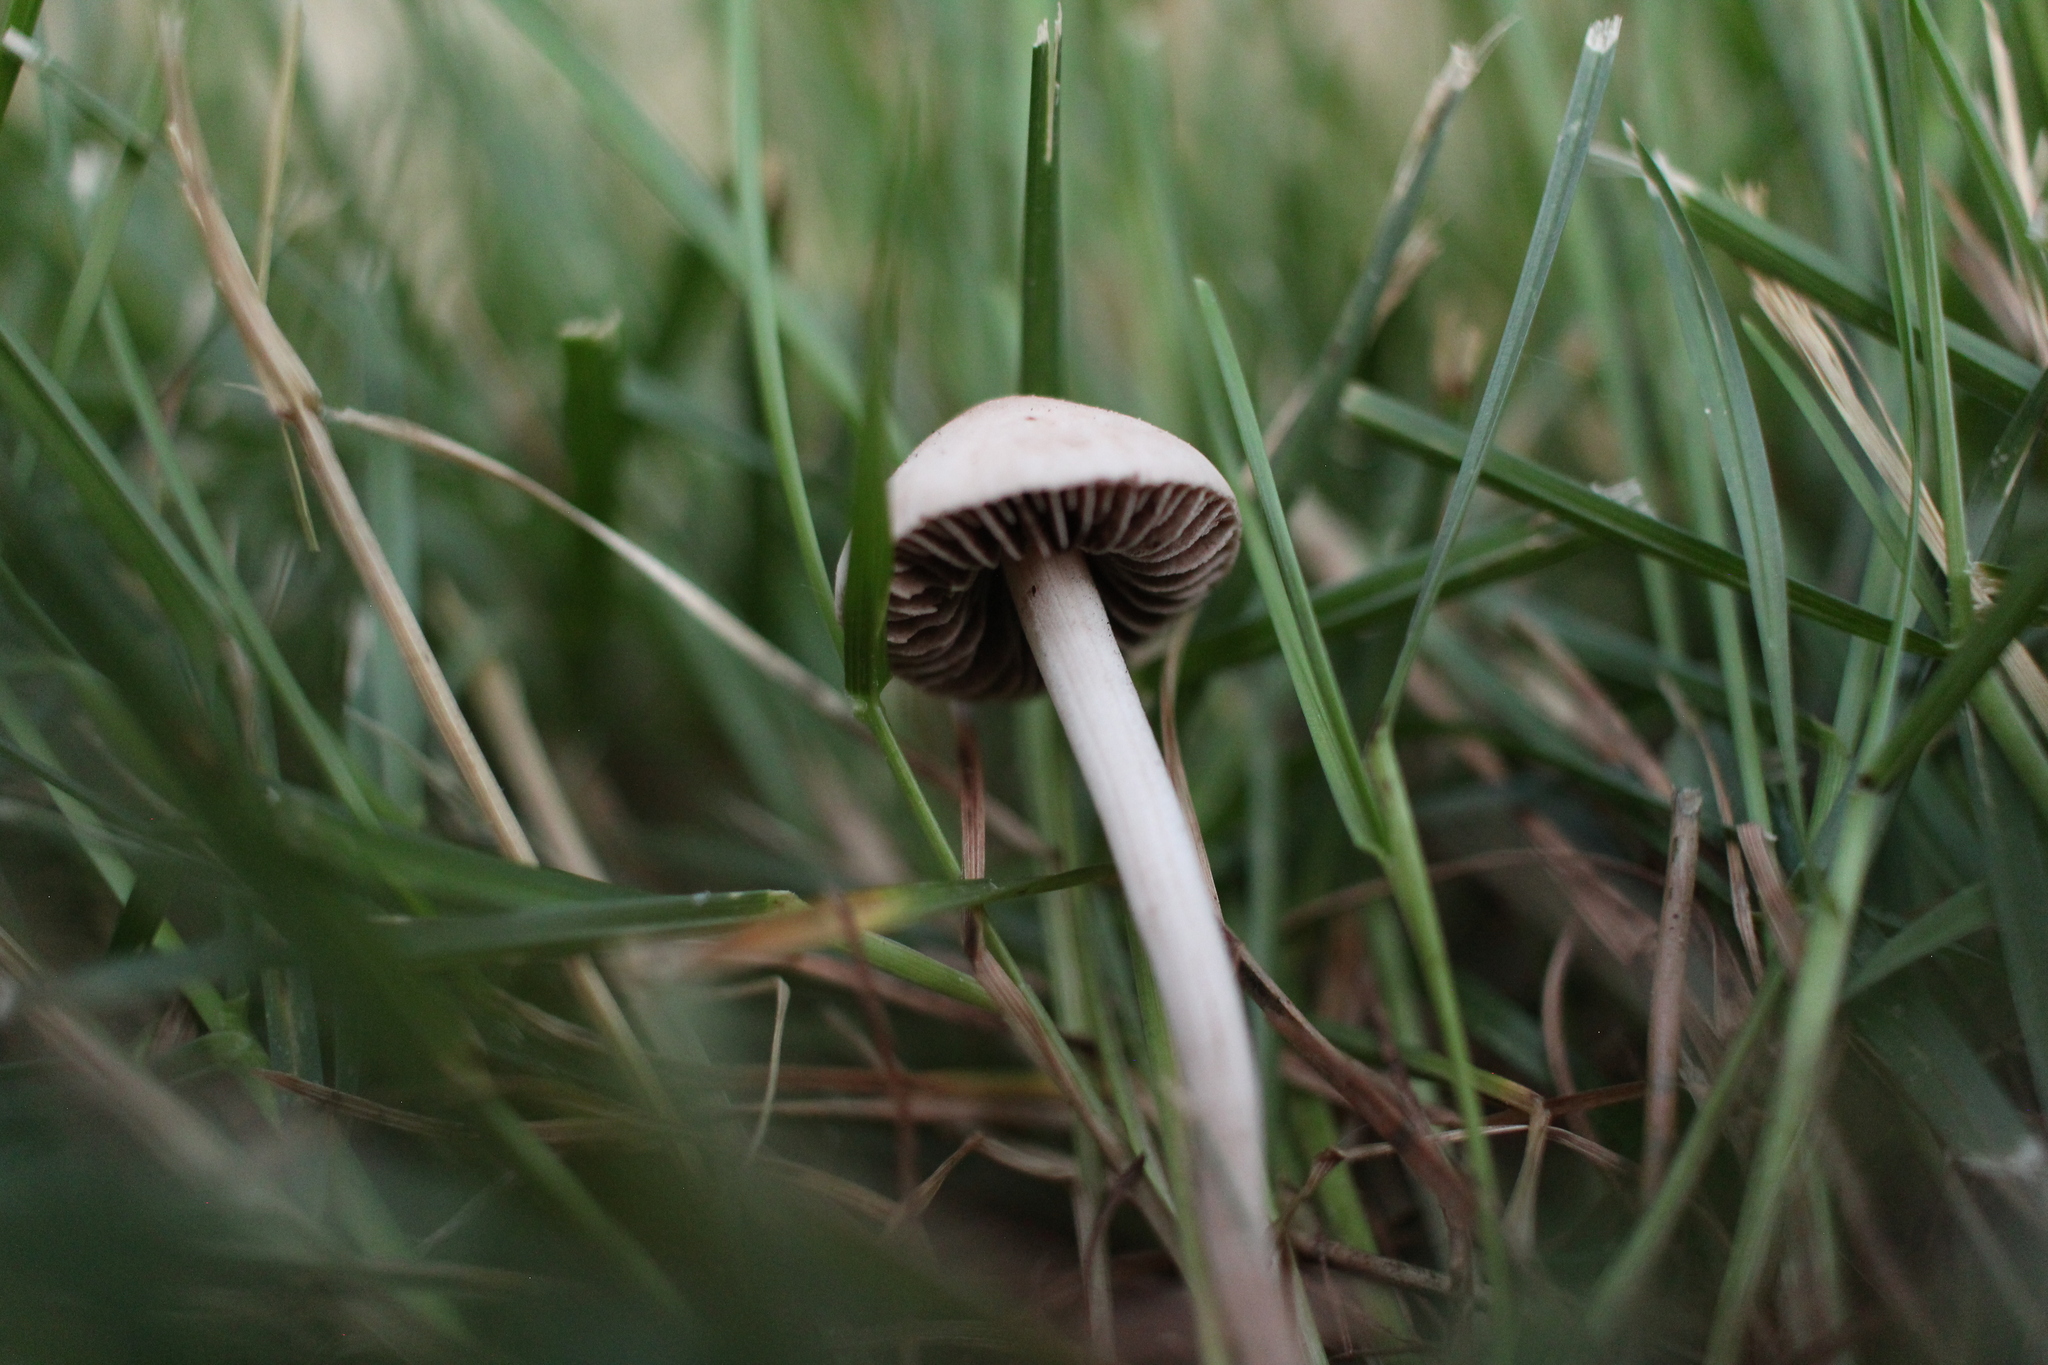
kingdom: Fungi
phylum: Basidiomycota
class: Agaricomycetes
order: Agaricales
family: Bolbitiaceae
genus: Panaeolina
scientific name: Panaeolina foenisecii
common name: Brown hay cap
